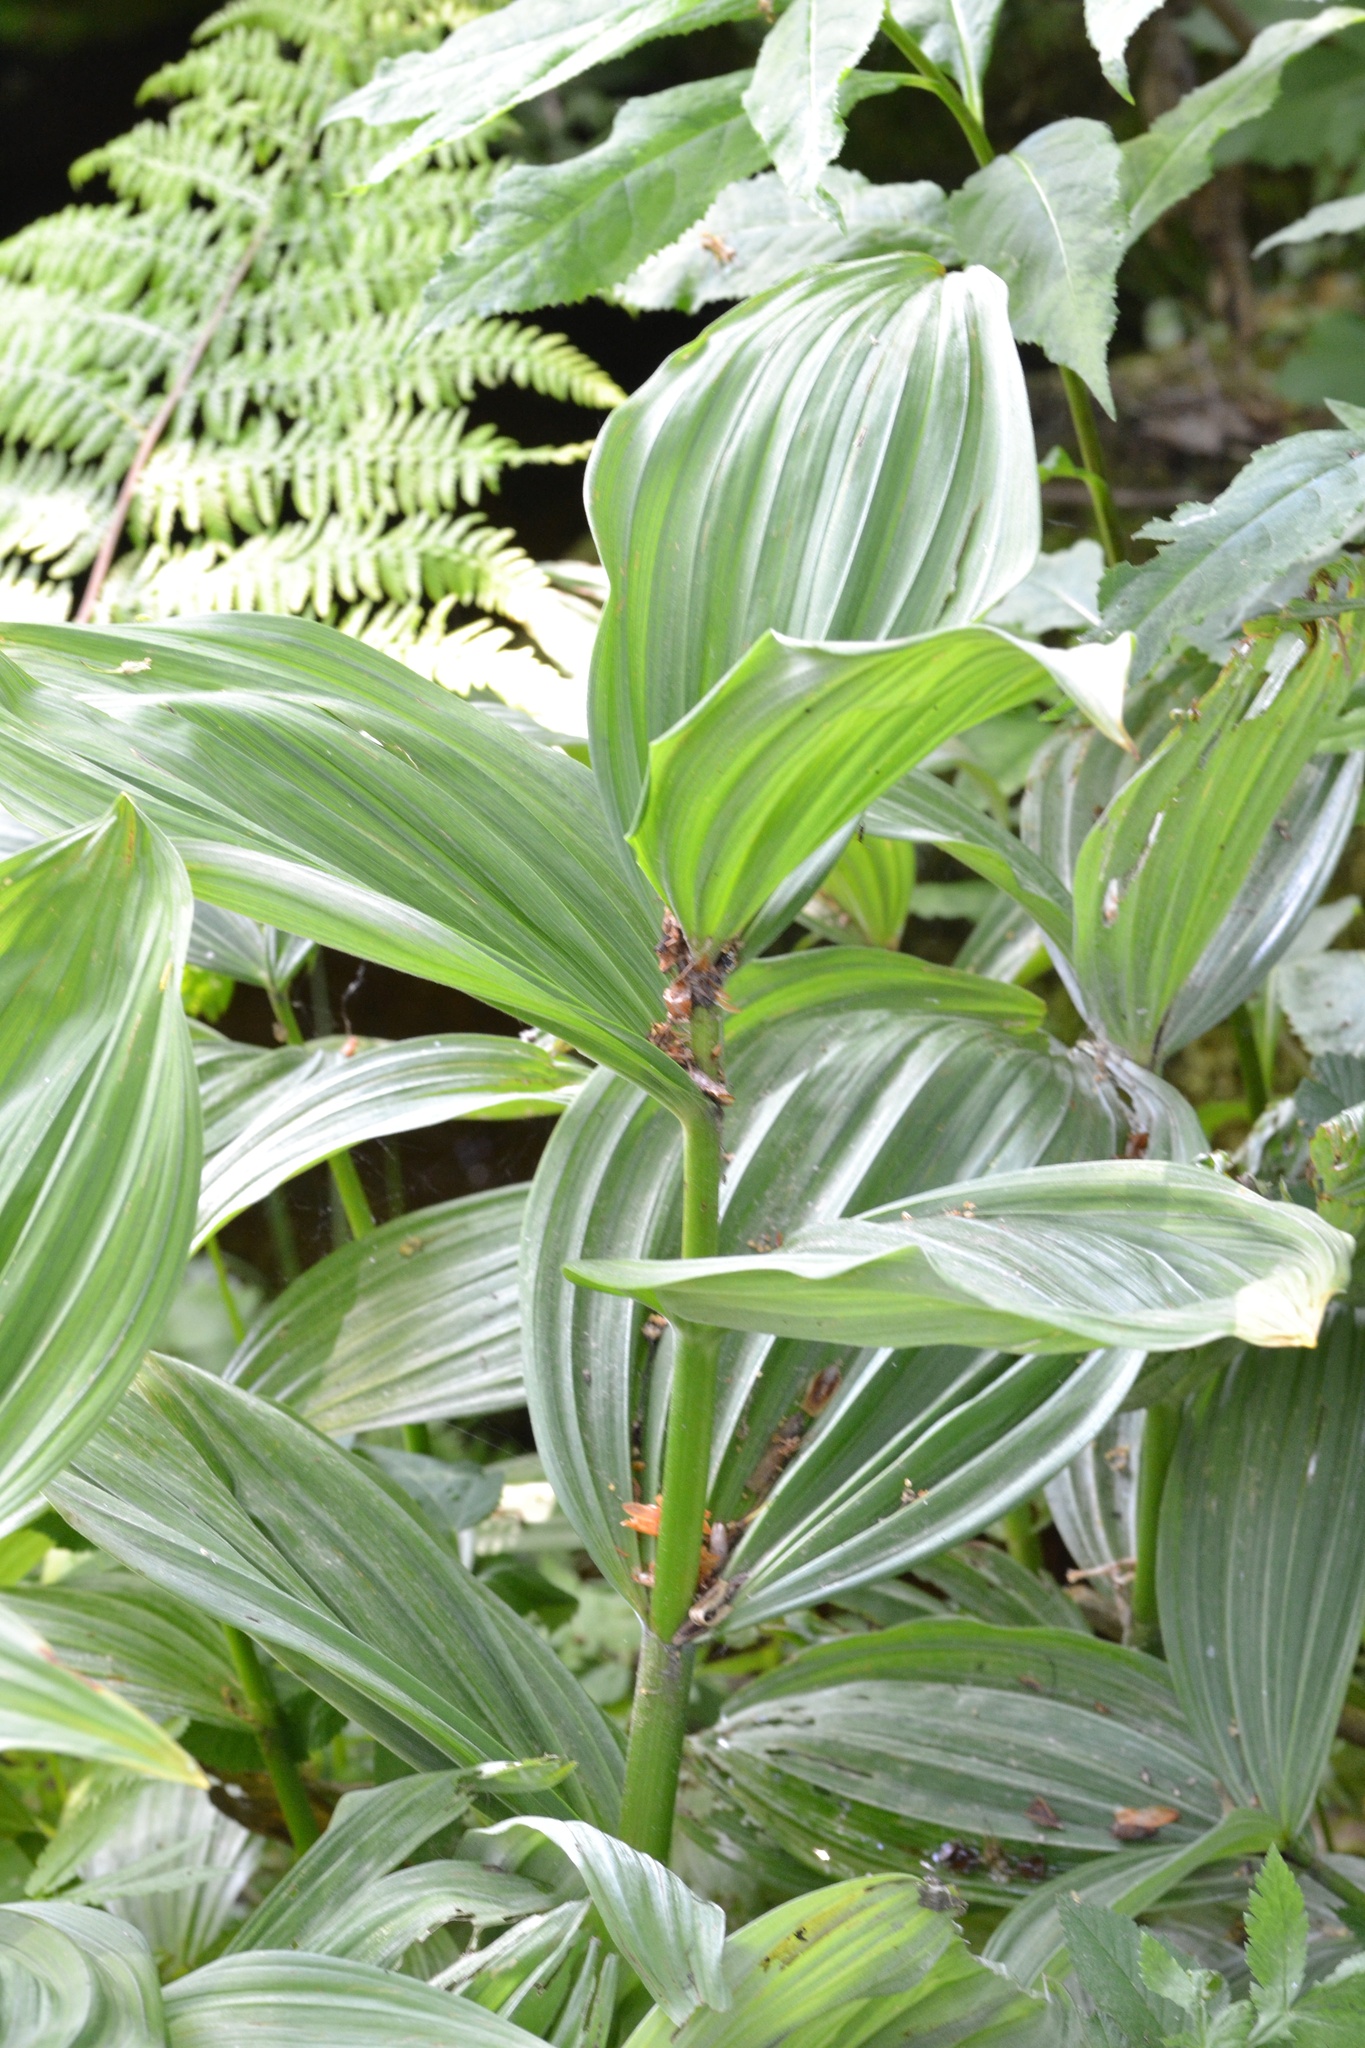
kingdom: Plantae
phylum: Tracheophyta
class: Liliopsida
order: Liliales
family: Melanthiaceae
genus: Veratrum
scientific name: Veratrum lobelianum
